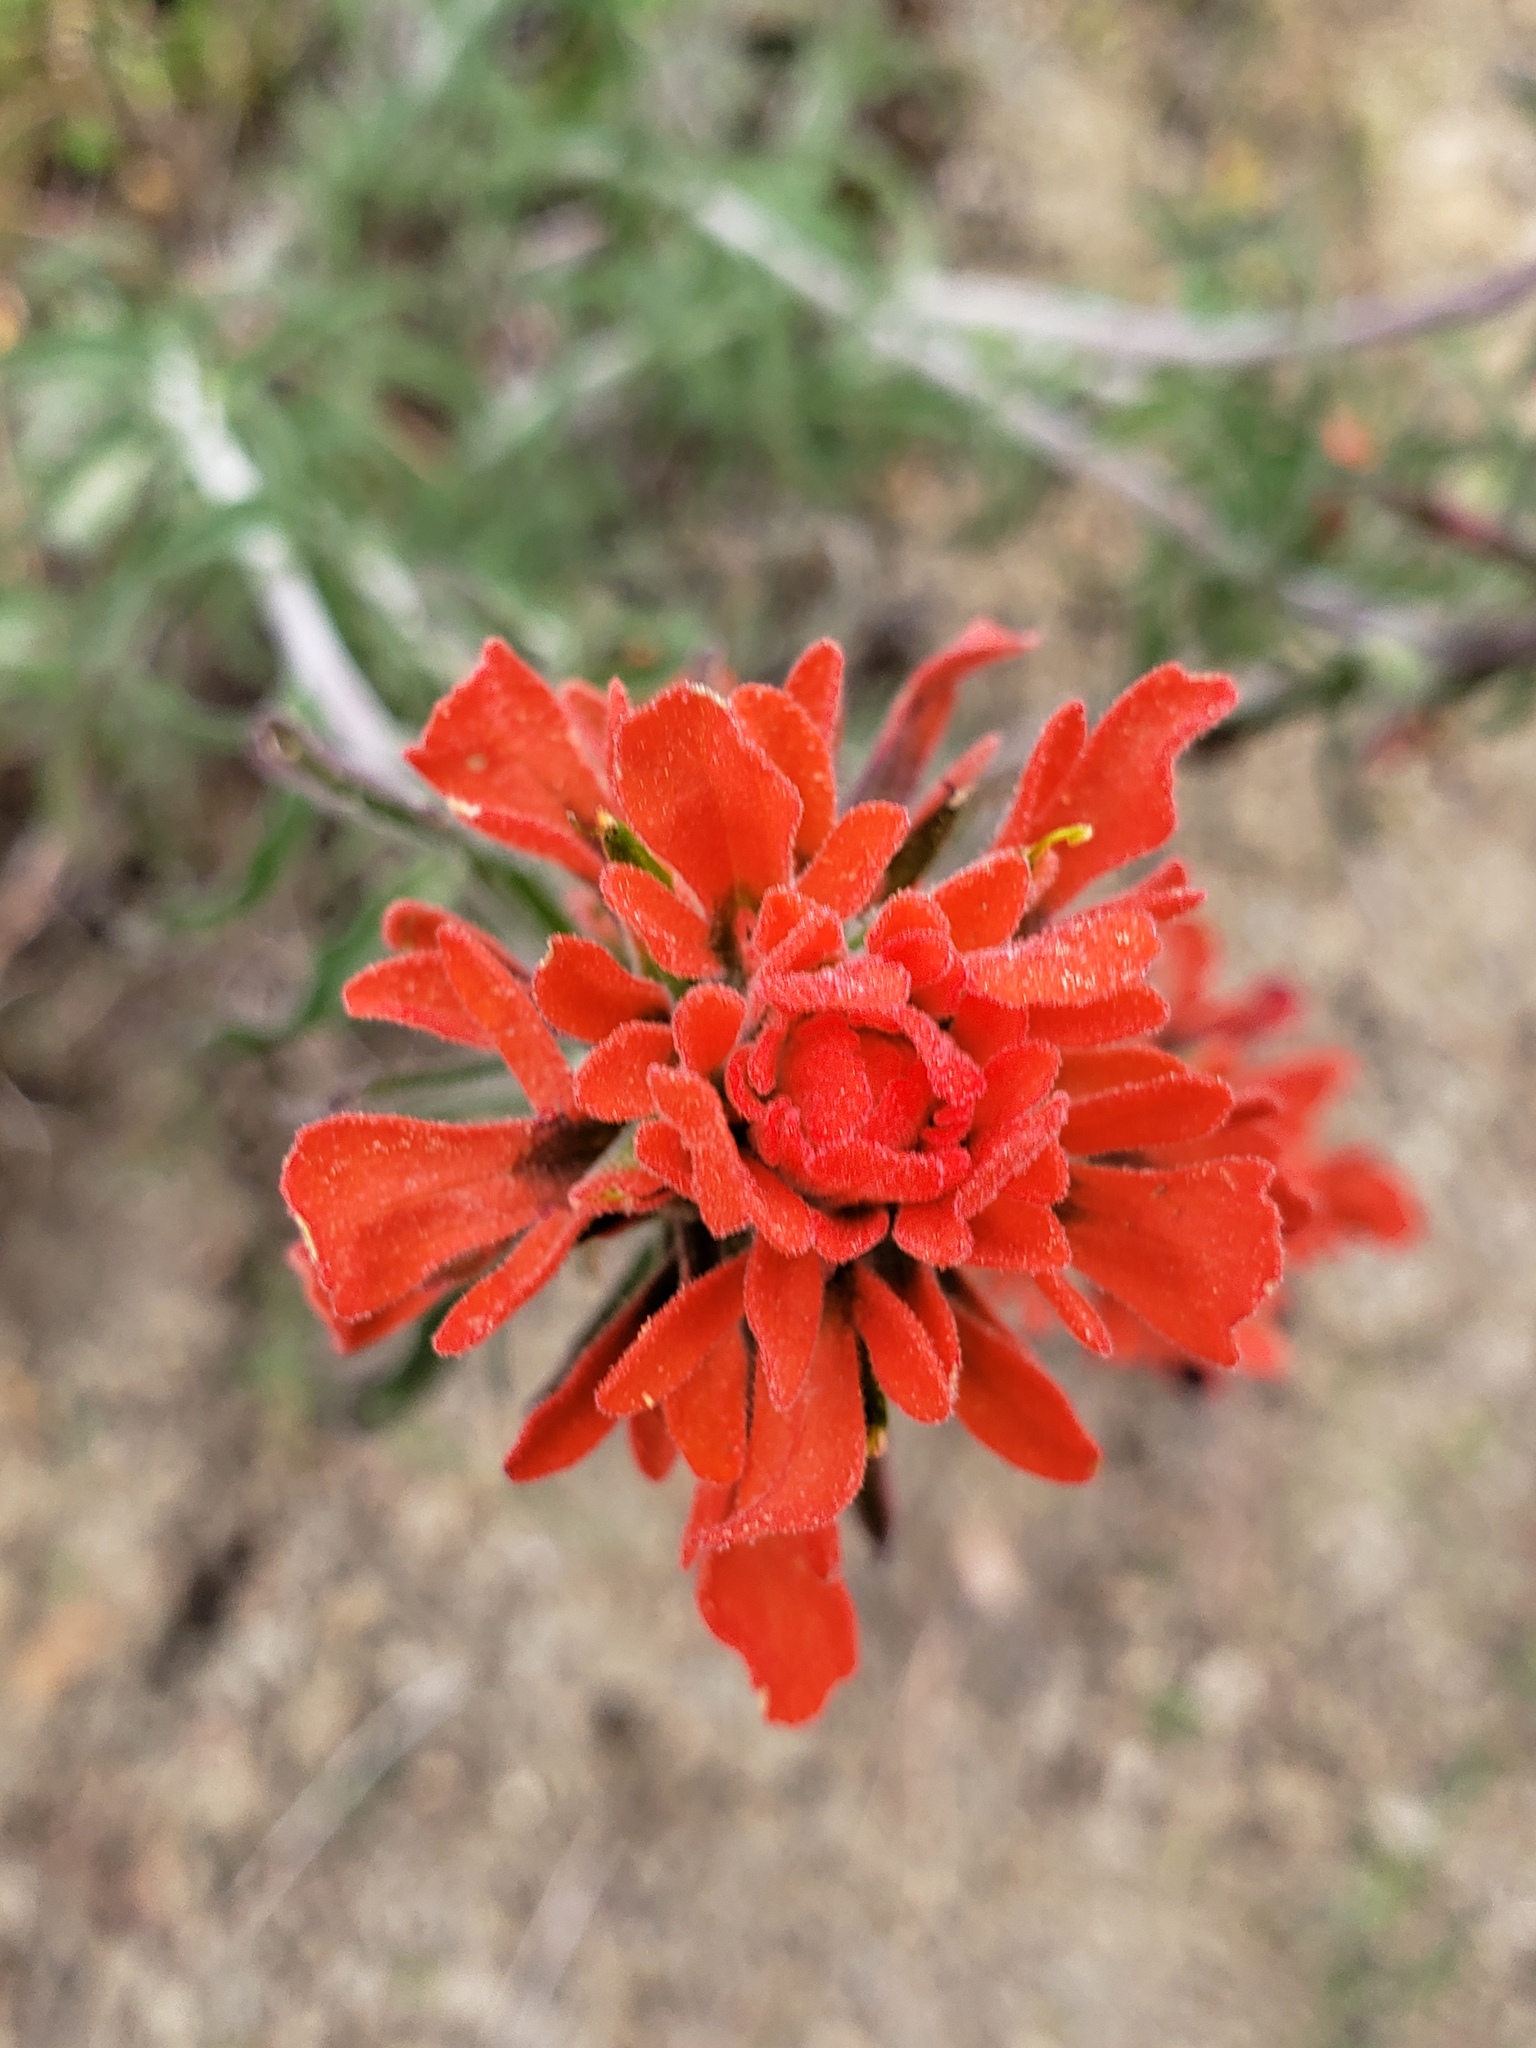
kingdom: Plantae
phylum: Tracheophyta
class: Magnoliopsida
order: Lamiales
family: Orobanchaceae
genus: Castilleja
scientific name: Castilleja foliolosa
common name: Woolly indian paintbrush
